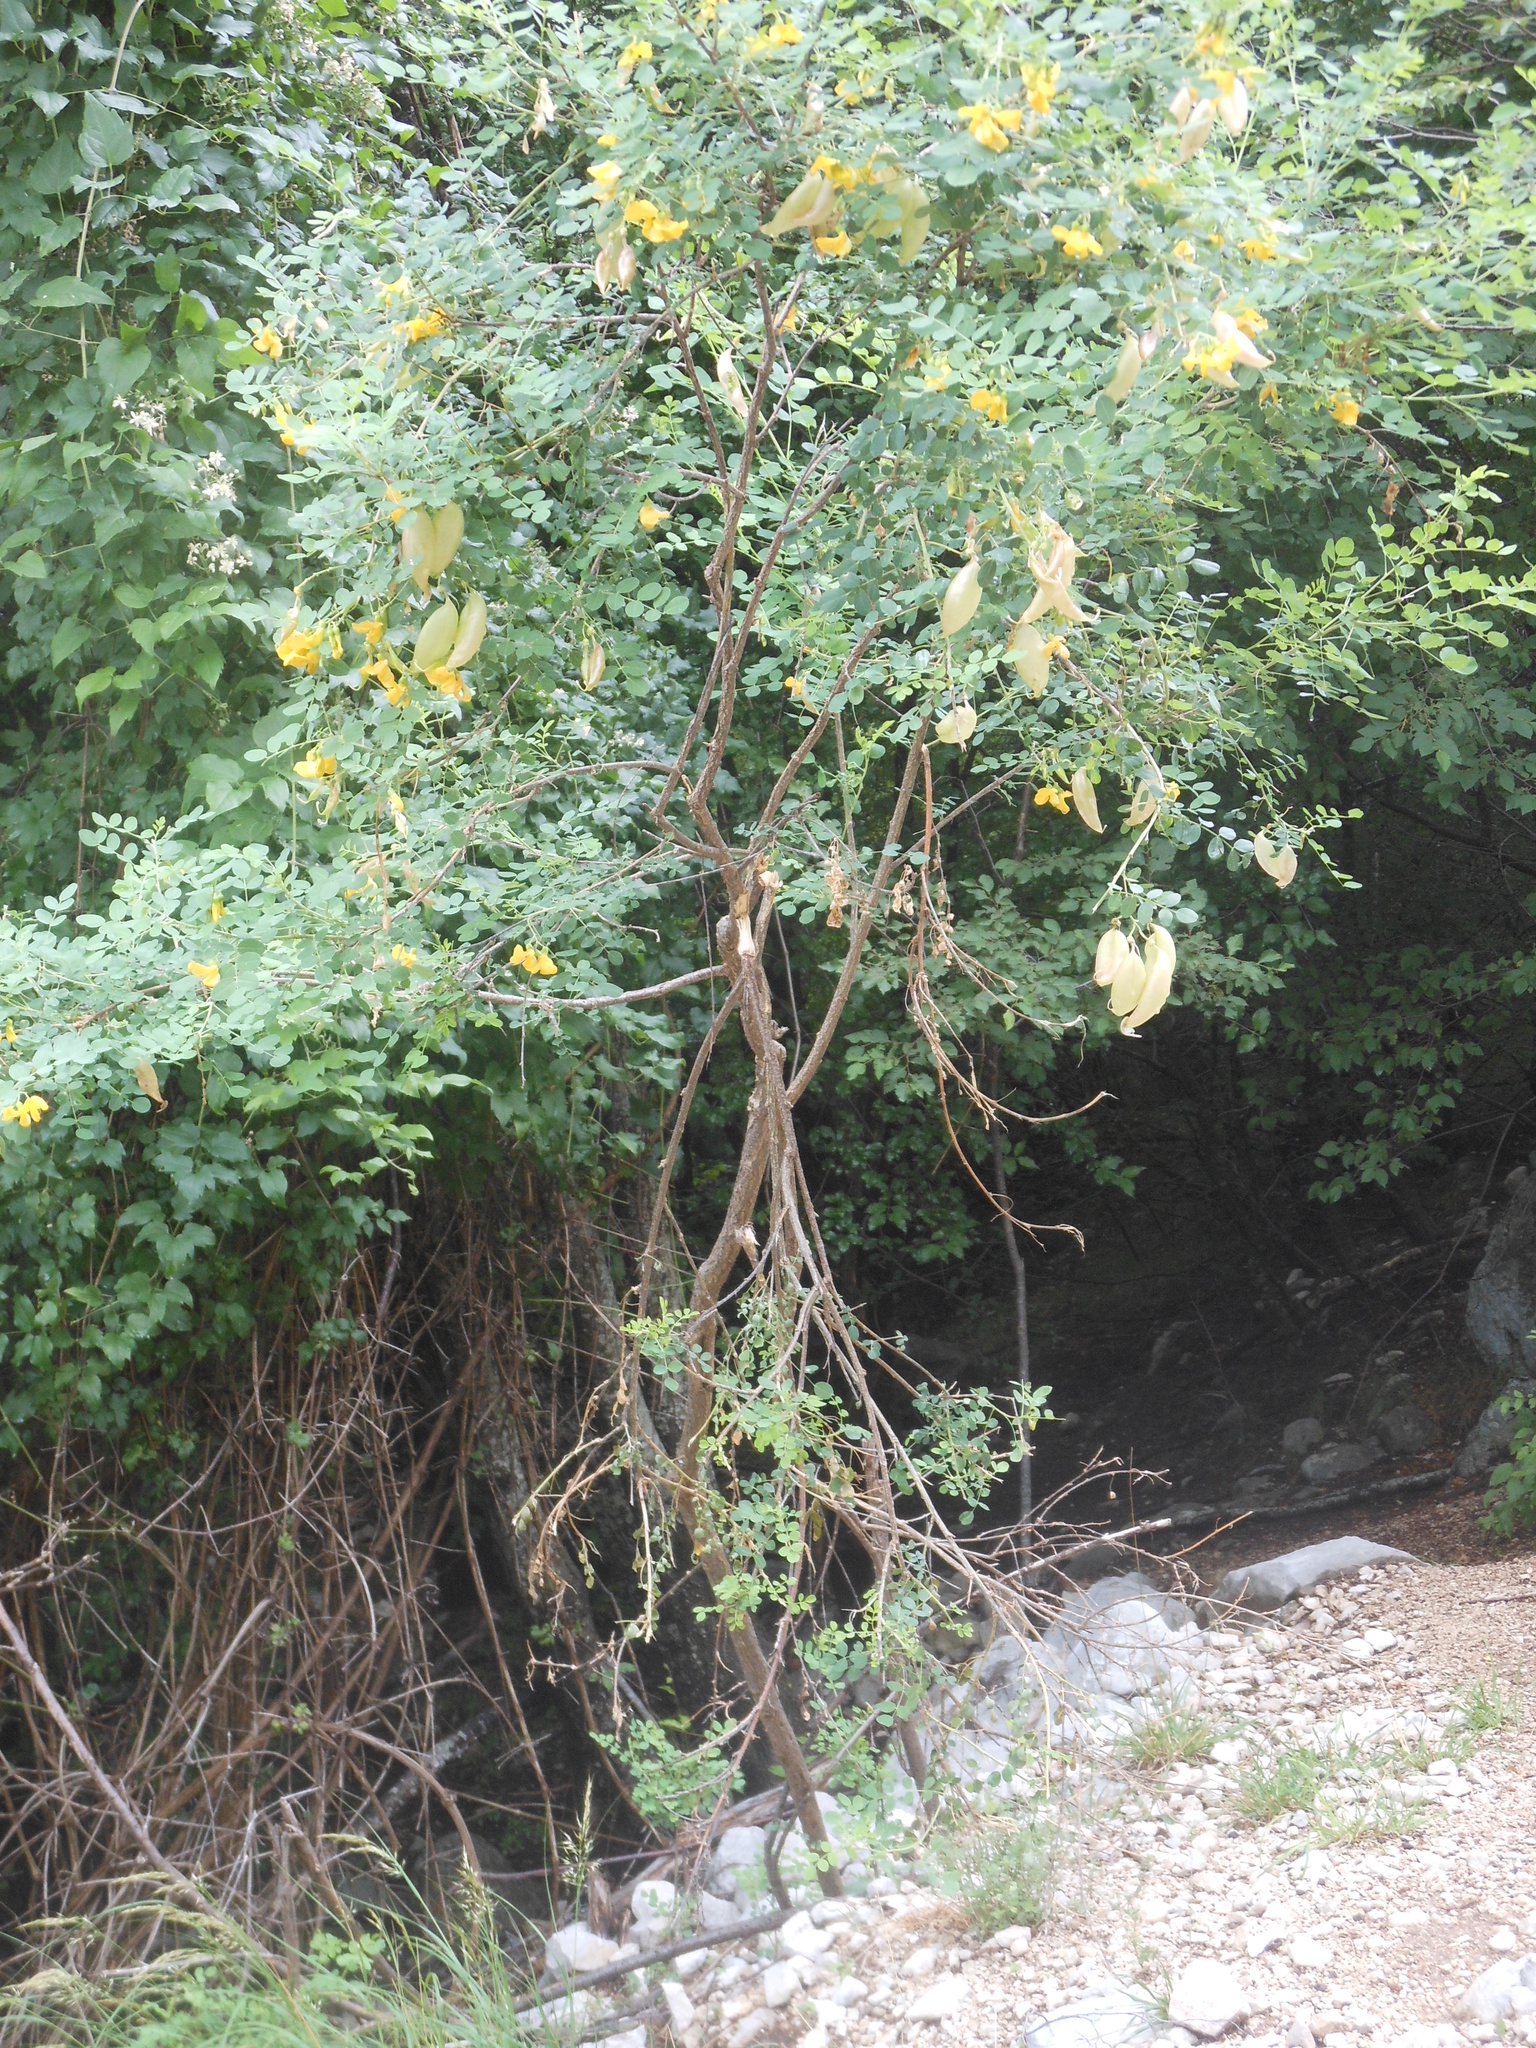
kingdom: Plantae
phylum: Tracheophyta
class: Magnoliopsida
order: Fabales
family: Fabaceae
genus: Colutea
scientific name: Colutea arborescens
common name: Bladder-senna
